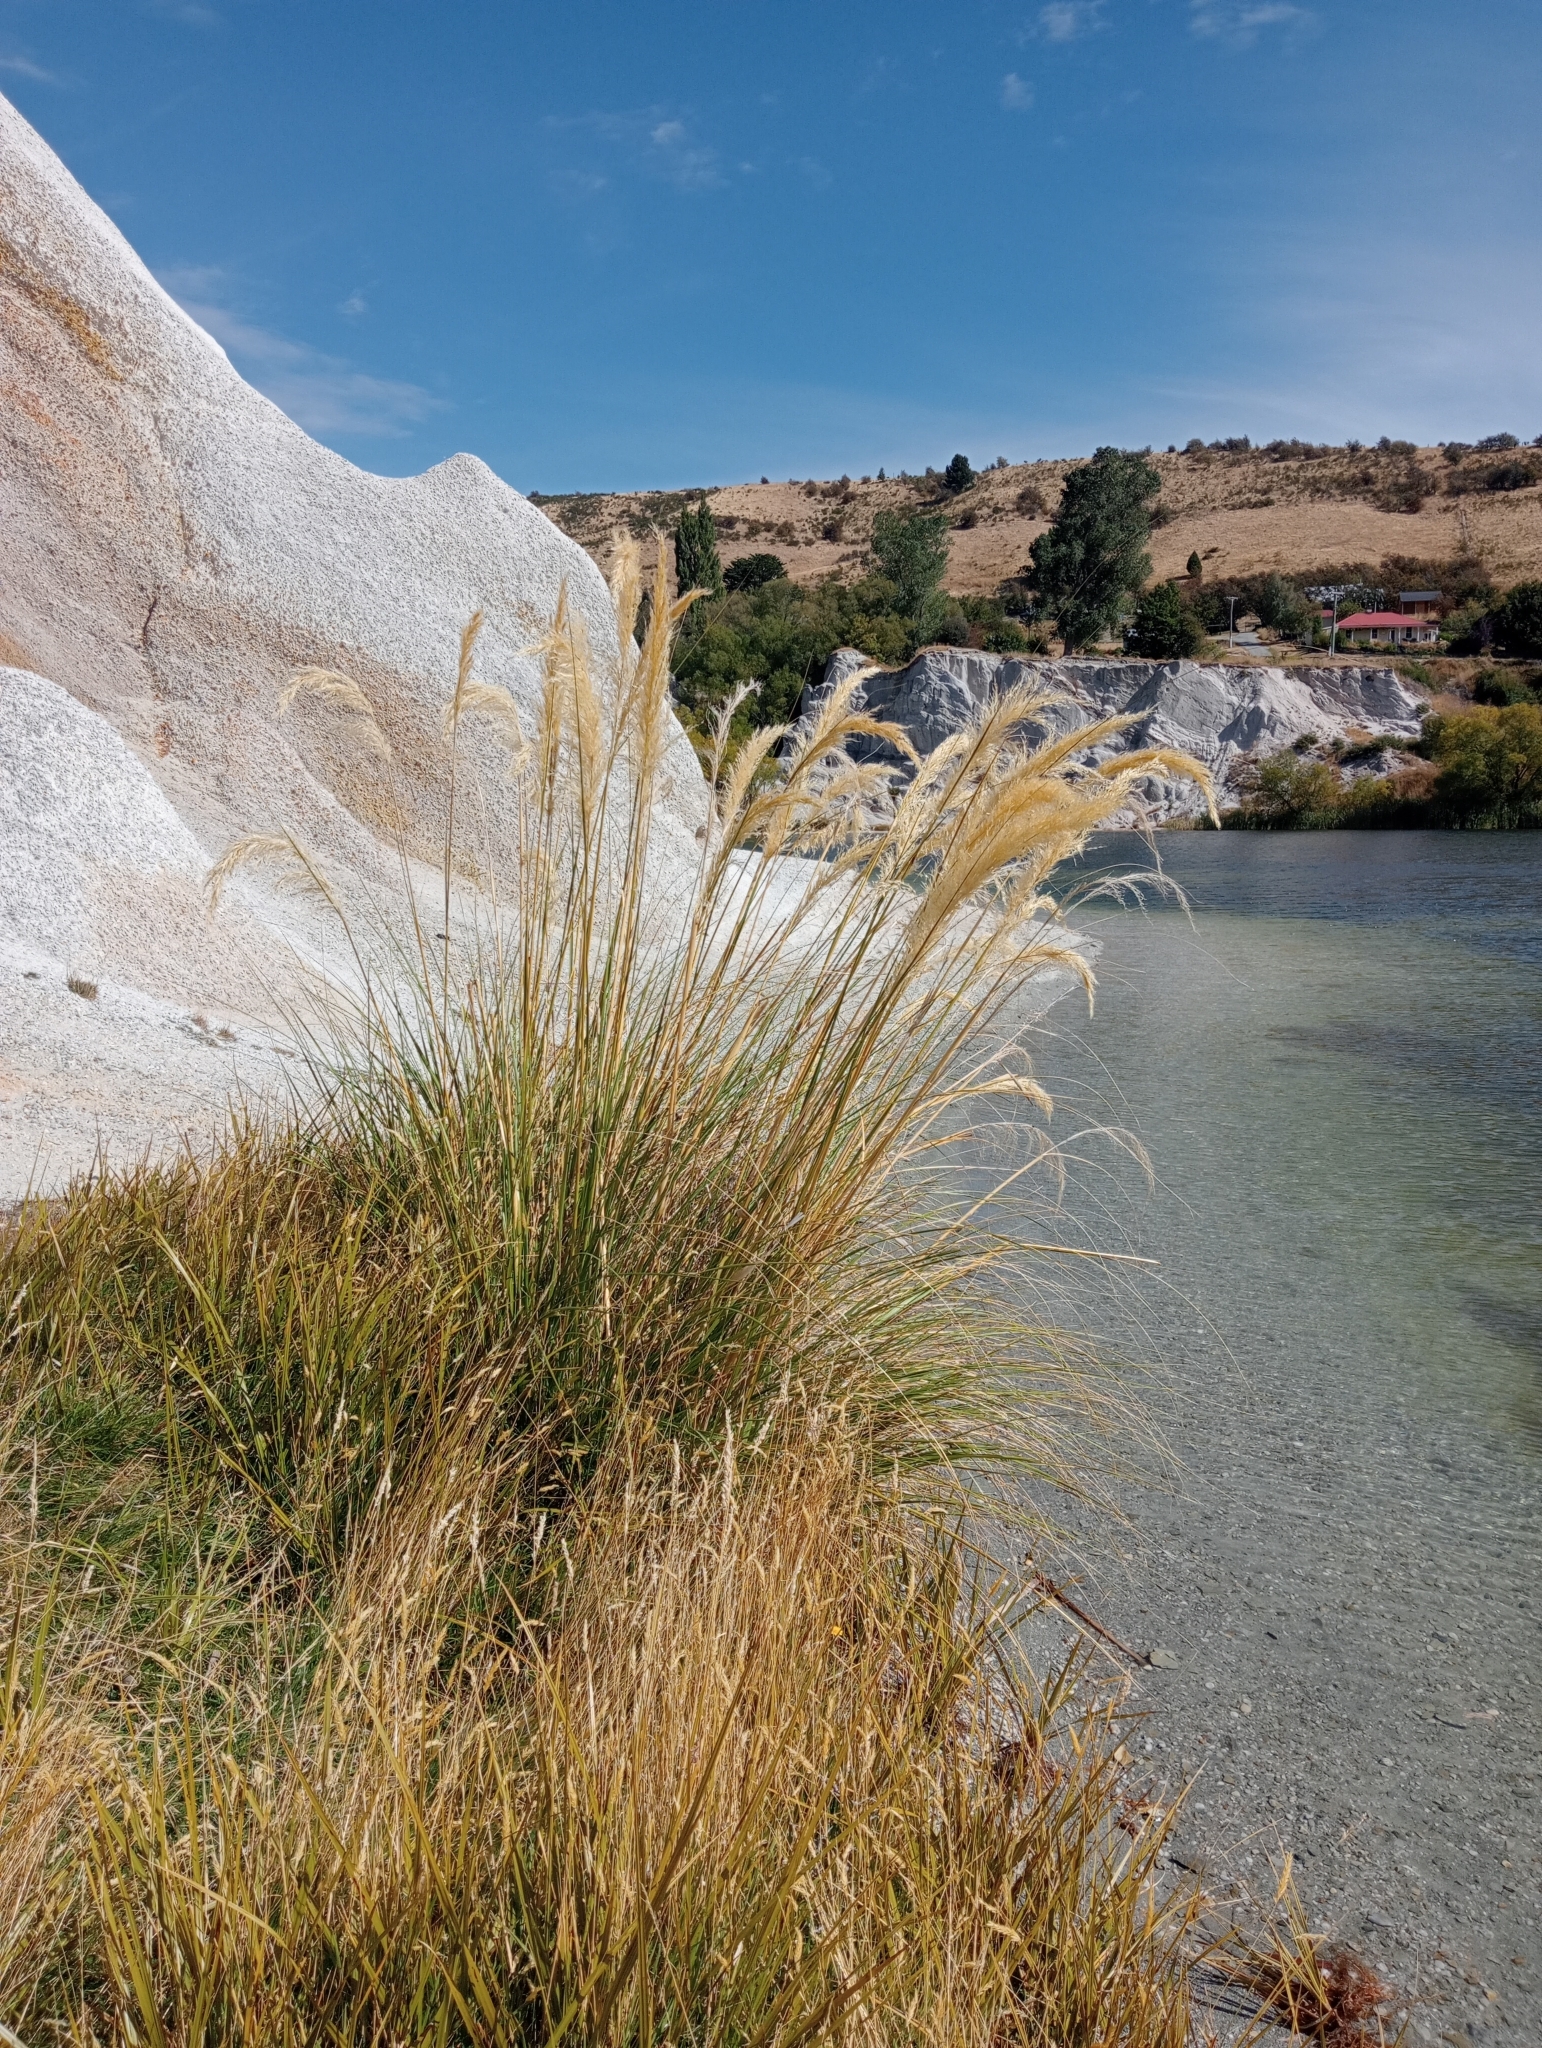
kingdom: Plantae
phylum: Tracheophyta
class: Liliopsida
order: Poales
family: Poaceae
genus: Austroderia
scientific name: Austroderia richardii
